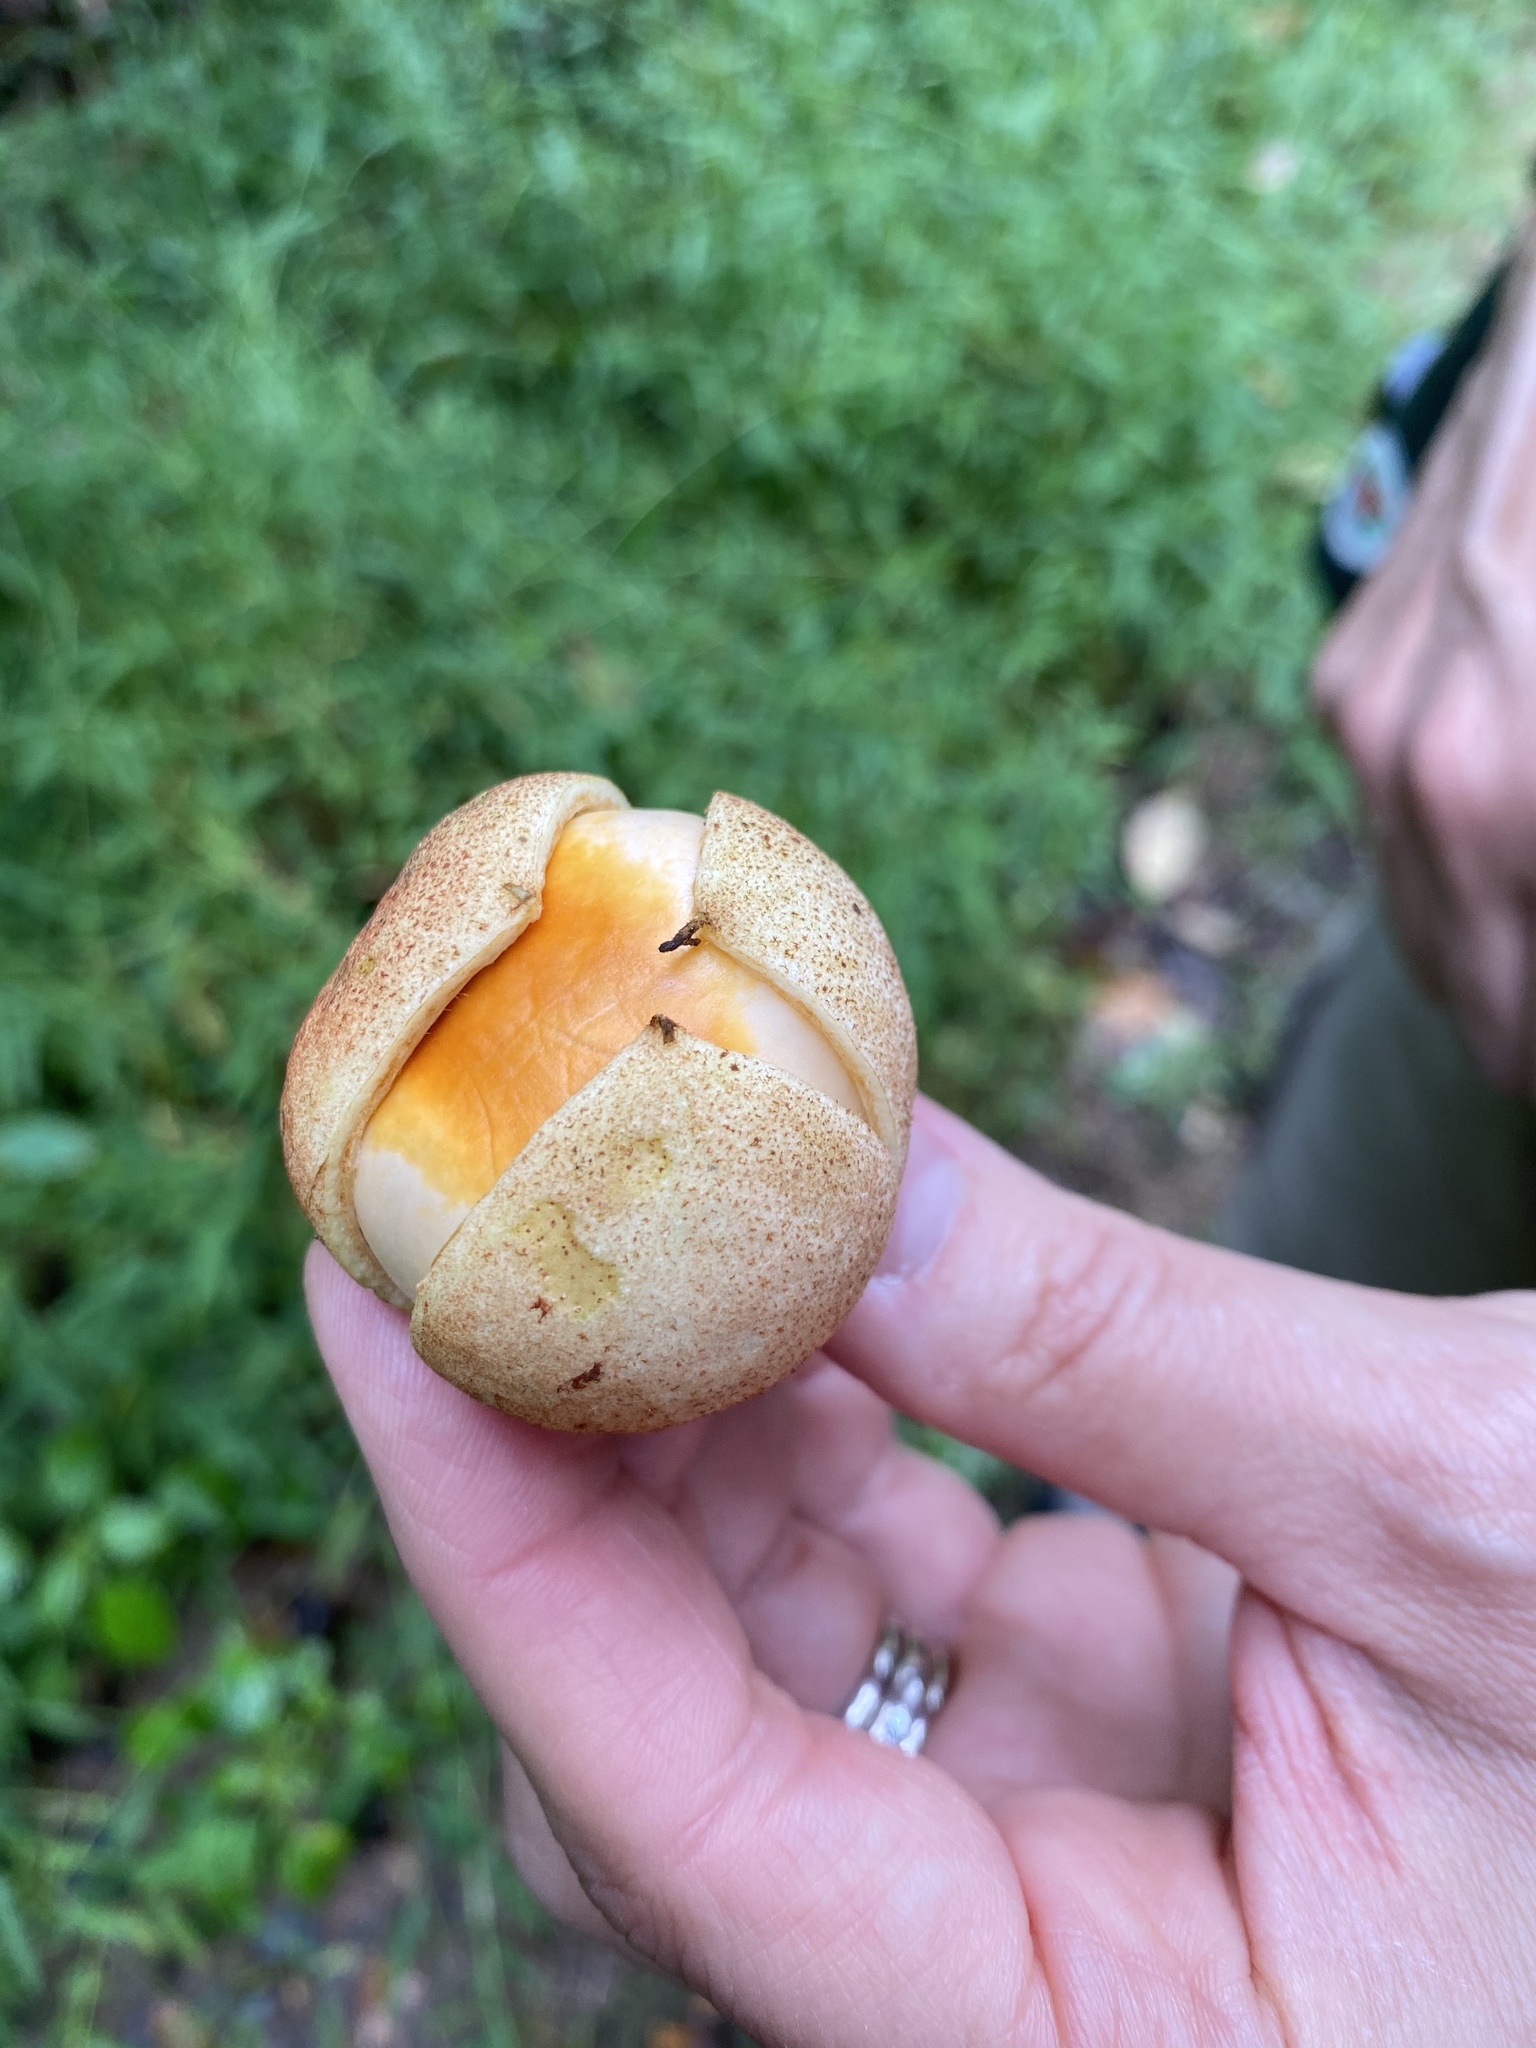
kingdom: Plantae
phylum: Tracheophyta
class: Magnoliopsida
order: Sapindales
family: Sapindaceae
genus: Aesculus
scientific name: Aesculus parviflora
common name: Bottlebrush buckeye
